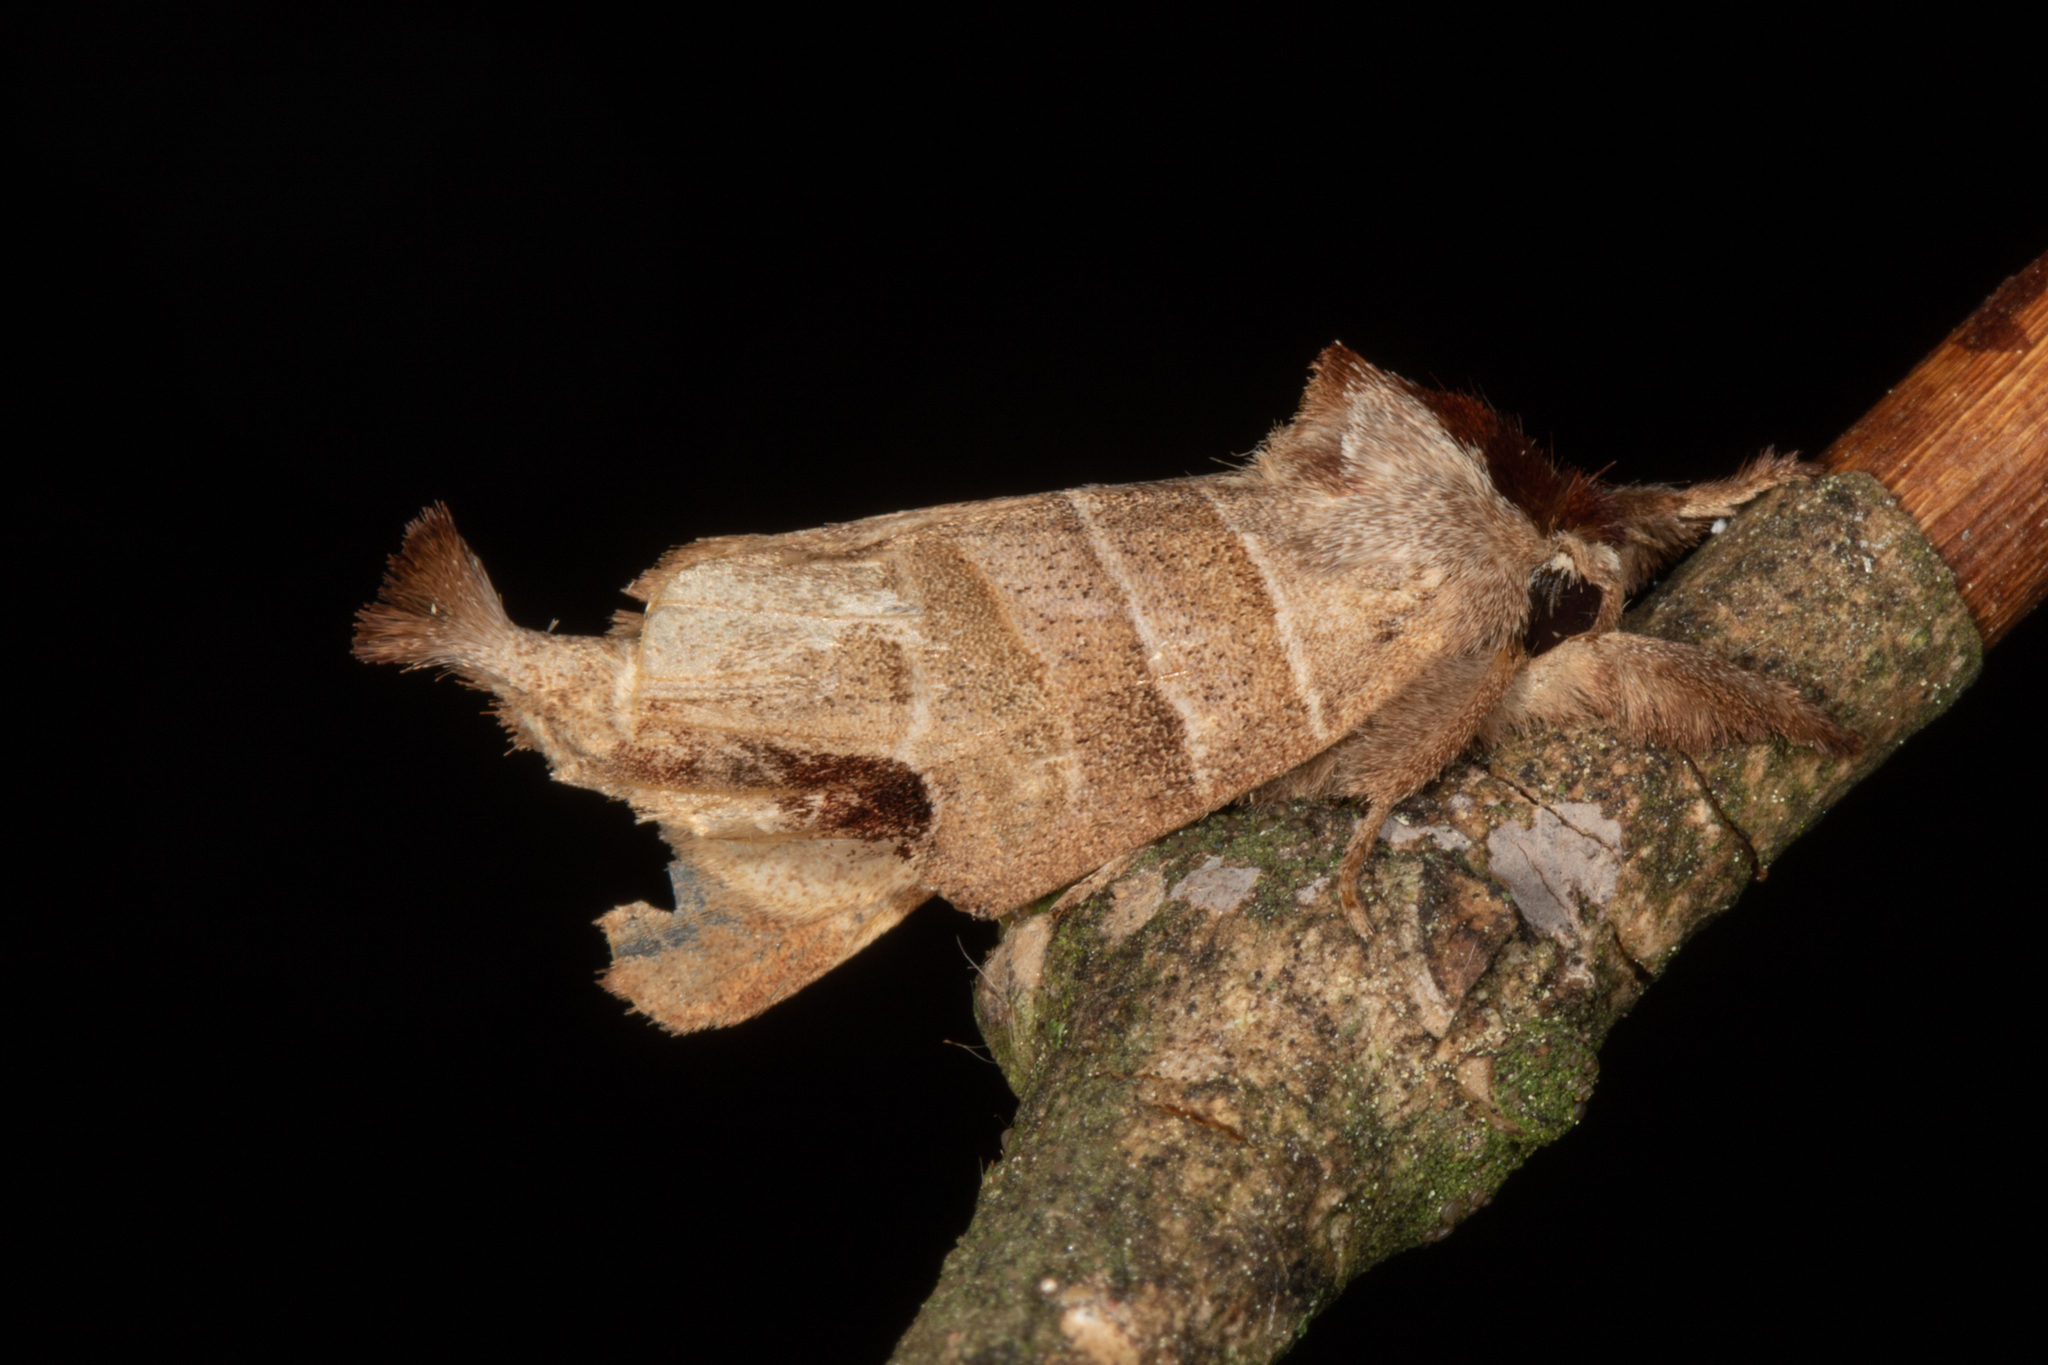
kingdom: Animalia
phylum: Arthropoda
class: Insecta
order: Lepidoptera
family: Notodontidae
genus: Clostera
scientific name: Clostera albosigma
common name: Sigmoid prominent
